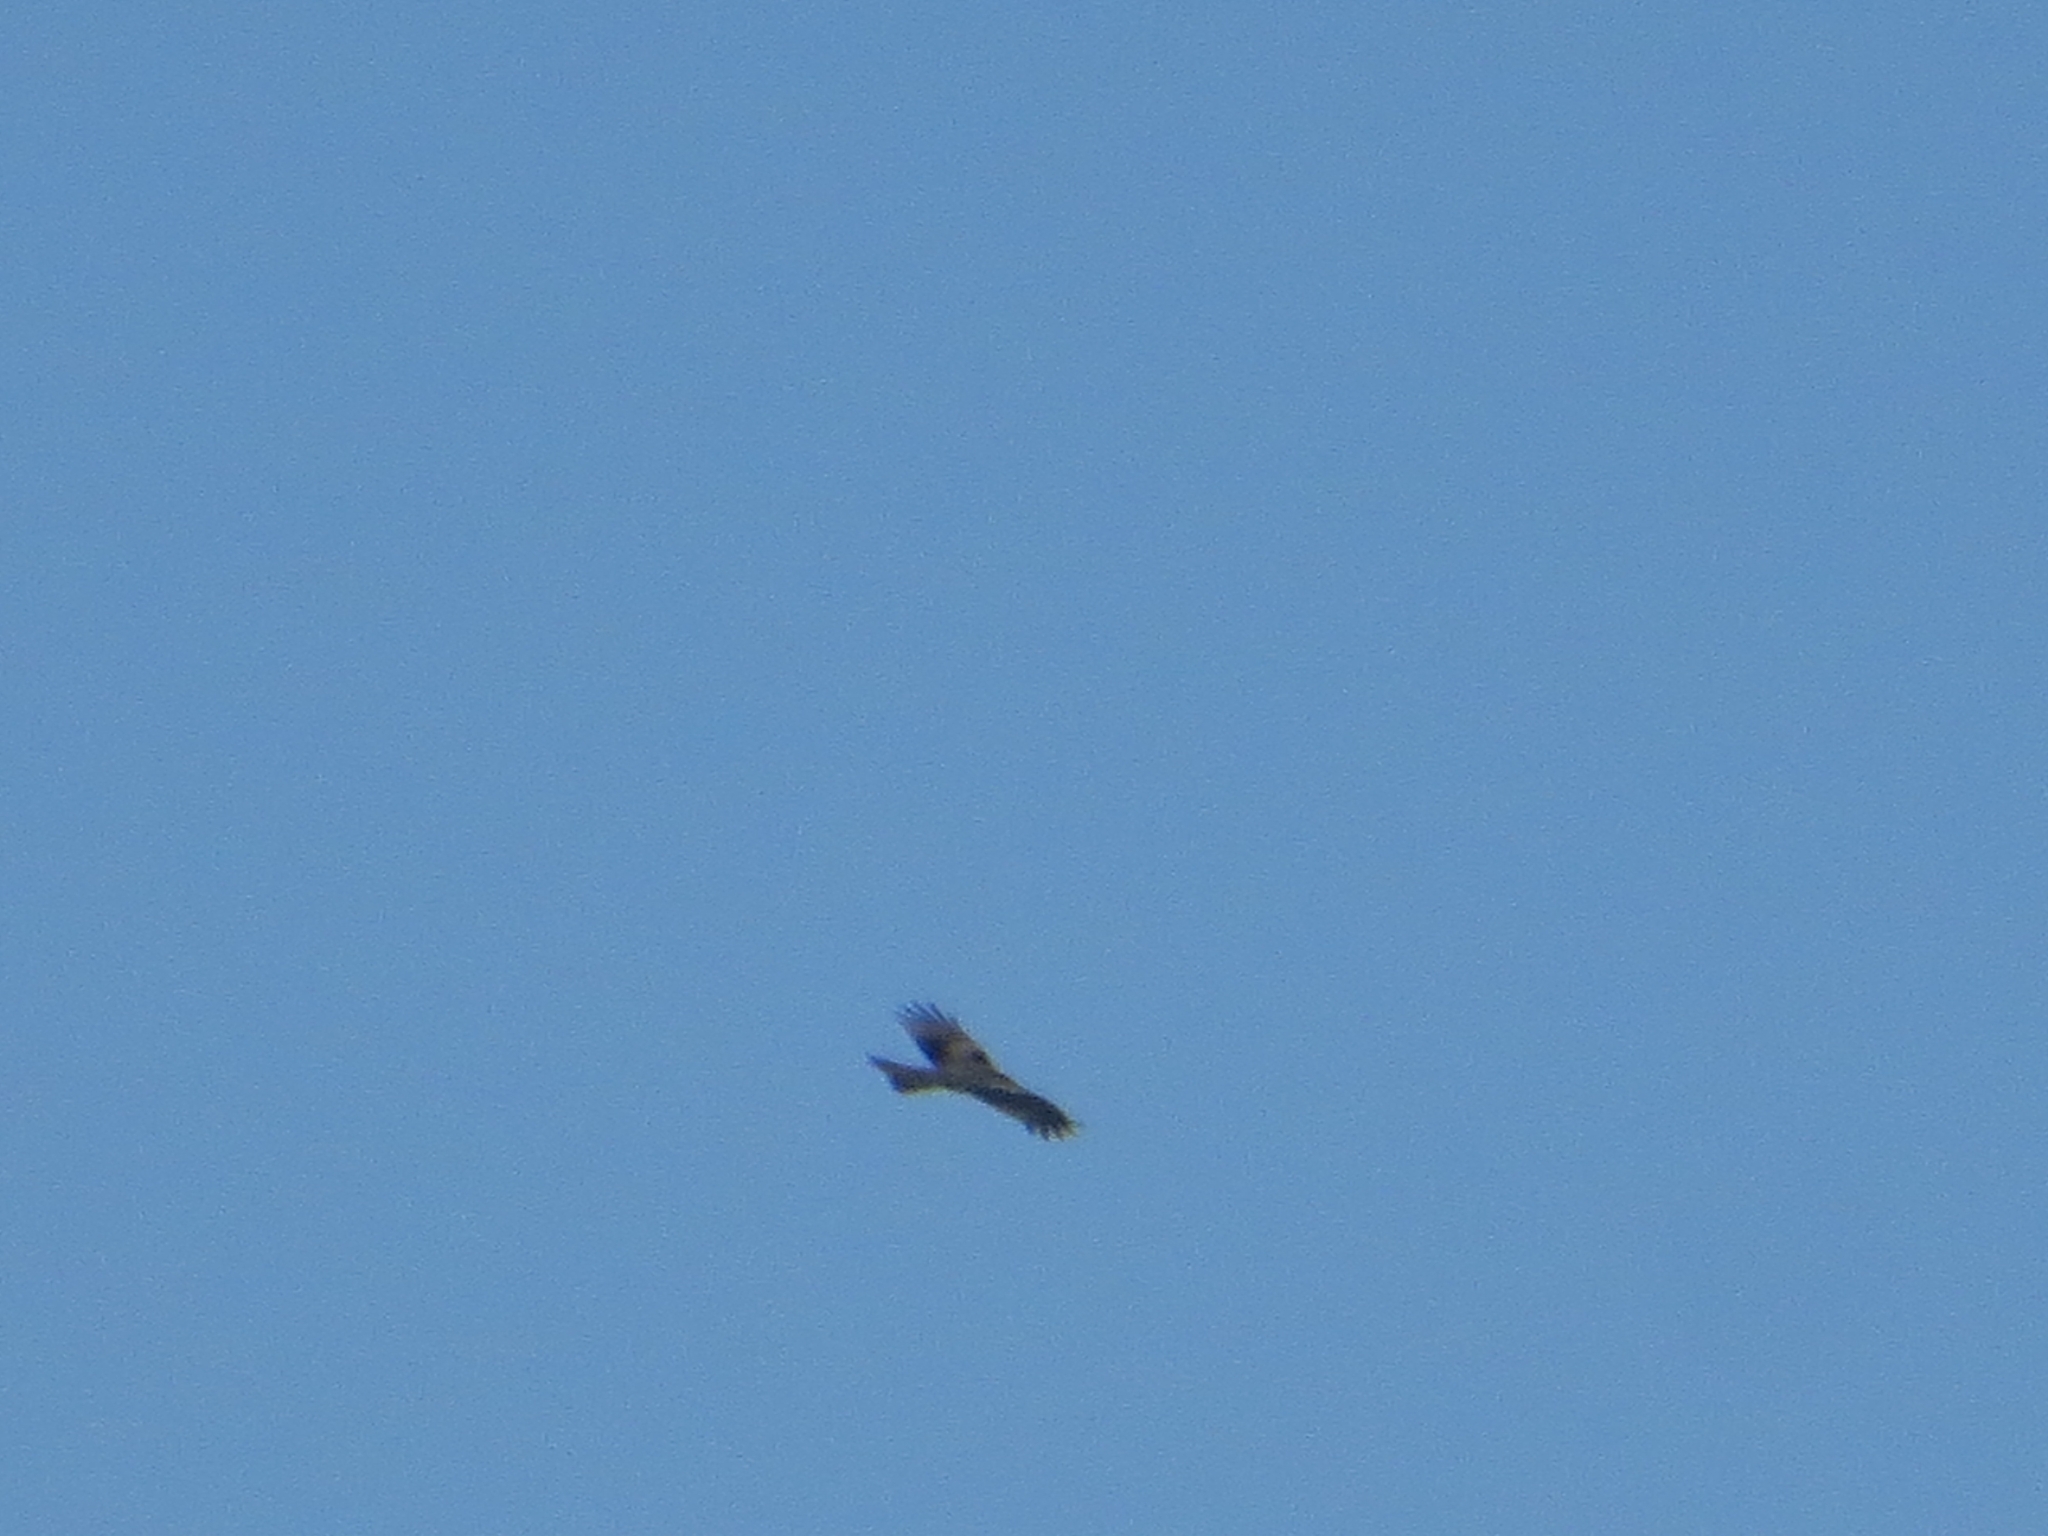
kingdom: Animalia
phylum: Chordata
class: Aves
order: Accipitriformes
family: Accipitridae
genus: Milvus
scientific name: Milvus migrans
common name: Black kite
